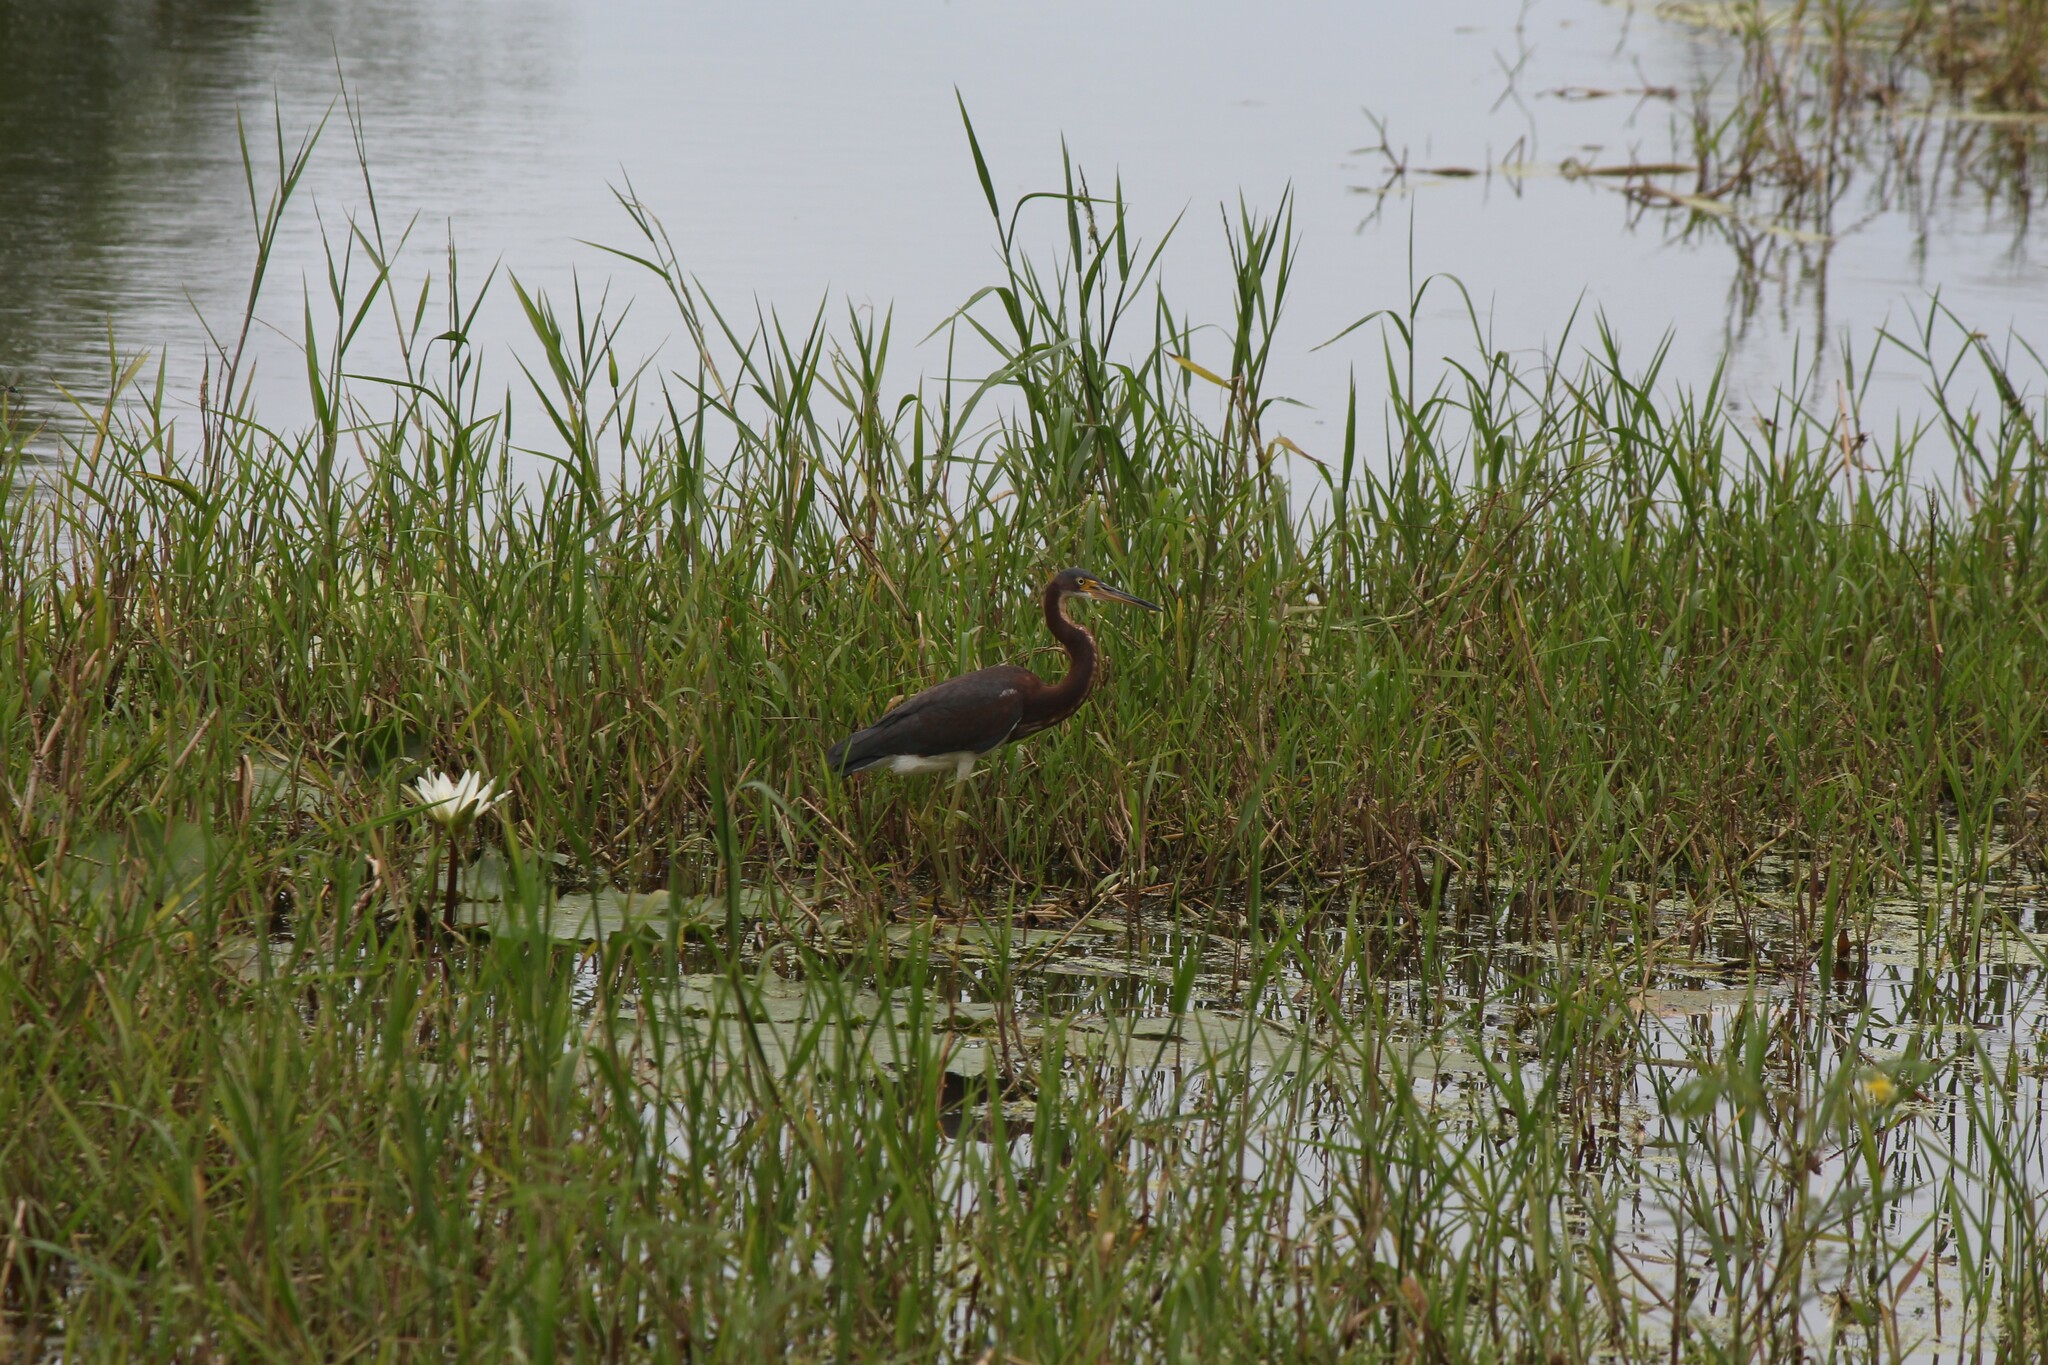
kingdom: Animalia
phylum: Chordata
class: Aves
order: Pelecaniformes
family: Ardeidae
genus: Egretta
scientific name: Egretta tricolor
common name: Tricolored heron
